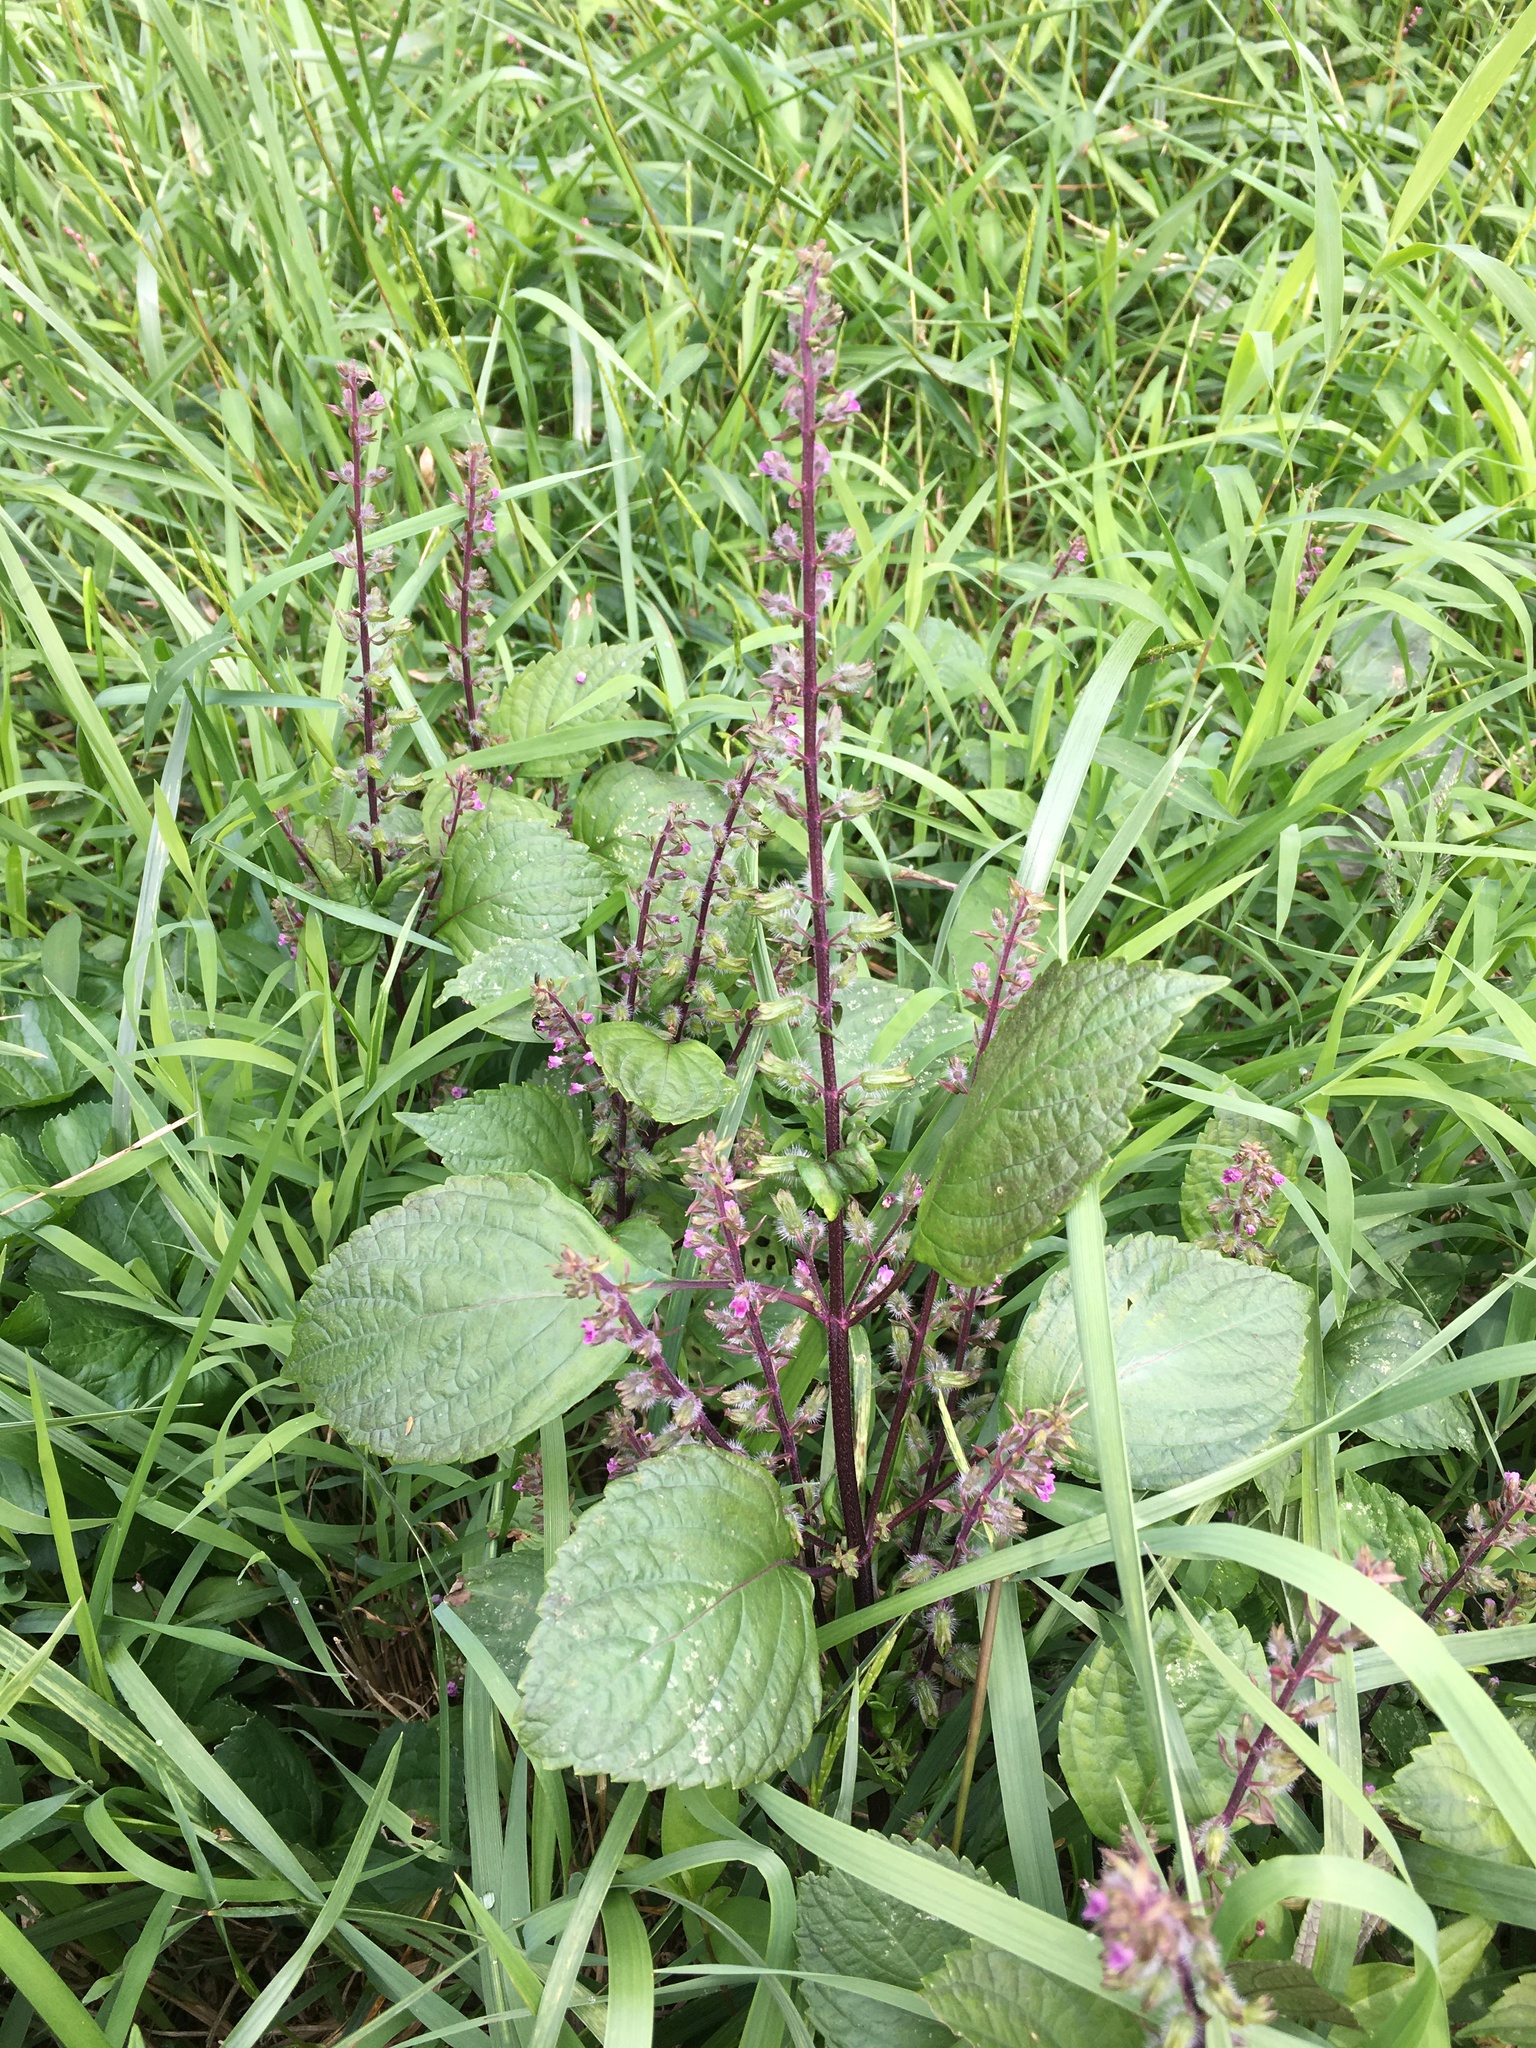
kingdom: Plantae
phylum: Tracheophyta
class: Magnoliopsida
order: Lamiales
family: Lamiaceae
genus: Perilla
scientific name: Perilla frutescens
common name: Perilla
